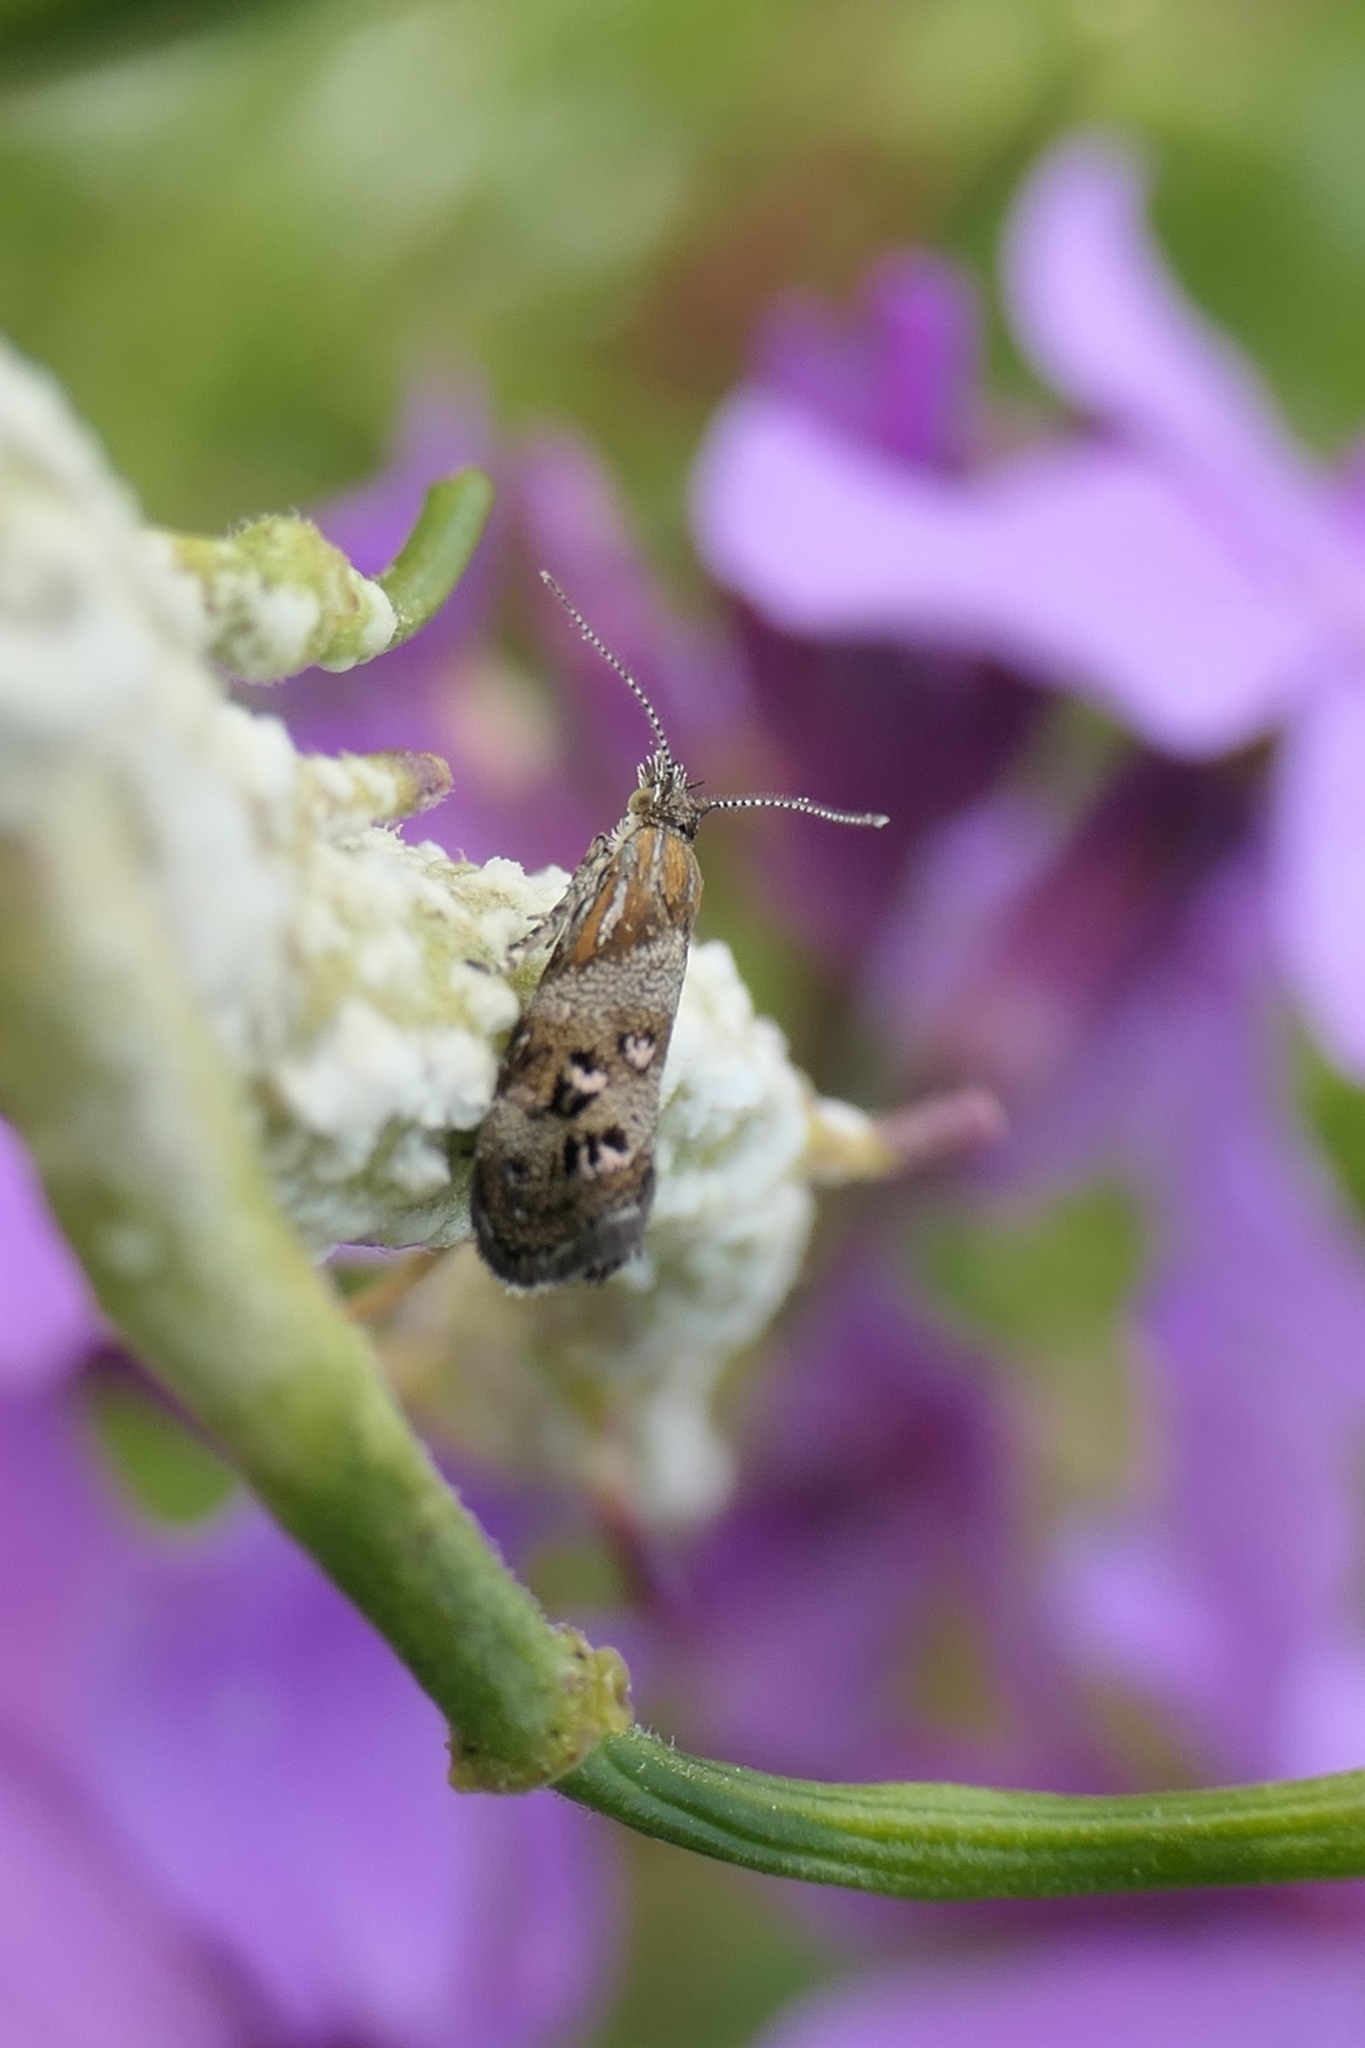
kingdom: Animalia
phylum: Arthropoda
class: Insecta
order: Lepidoptera
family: Choreutidae
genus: Tebenna
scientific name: Tebenna micalis
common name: Vagrant twitcher
